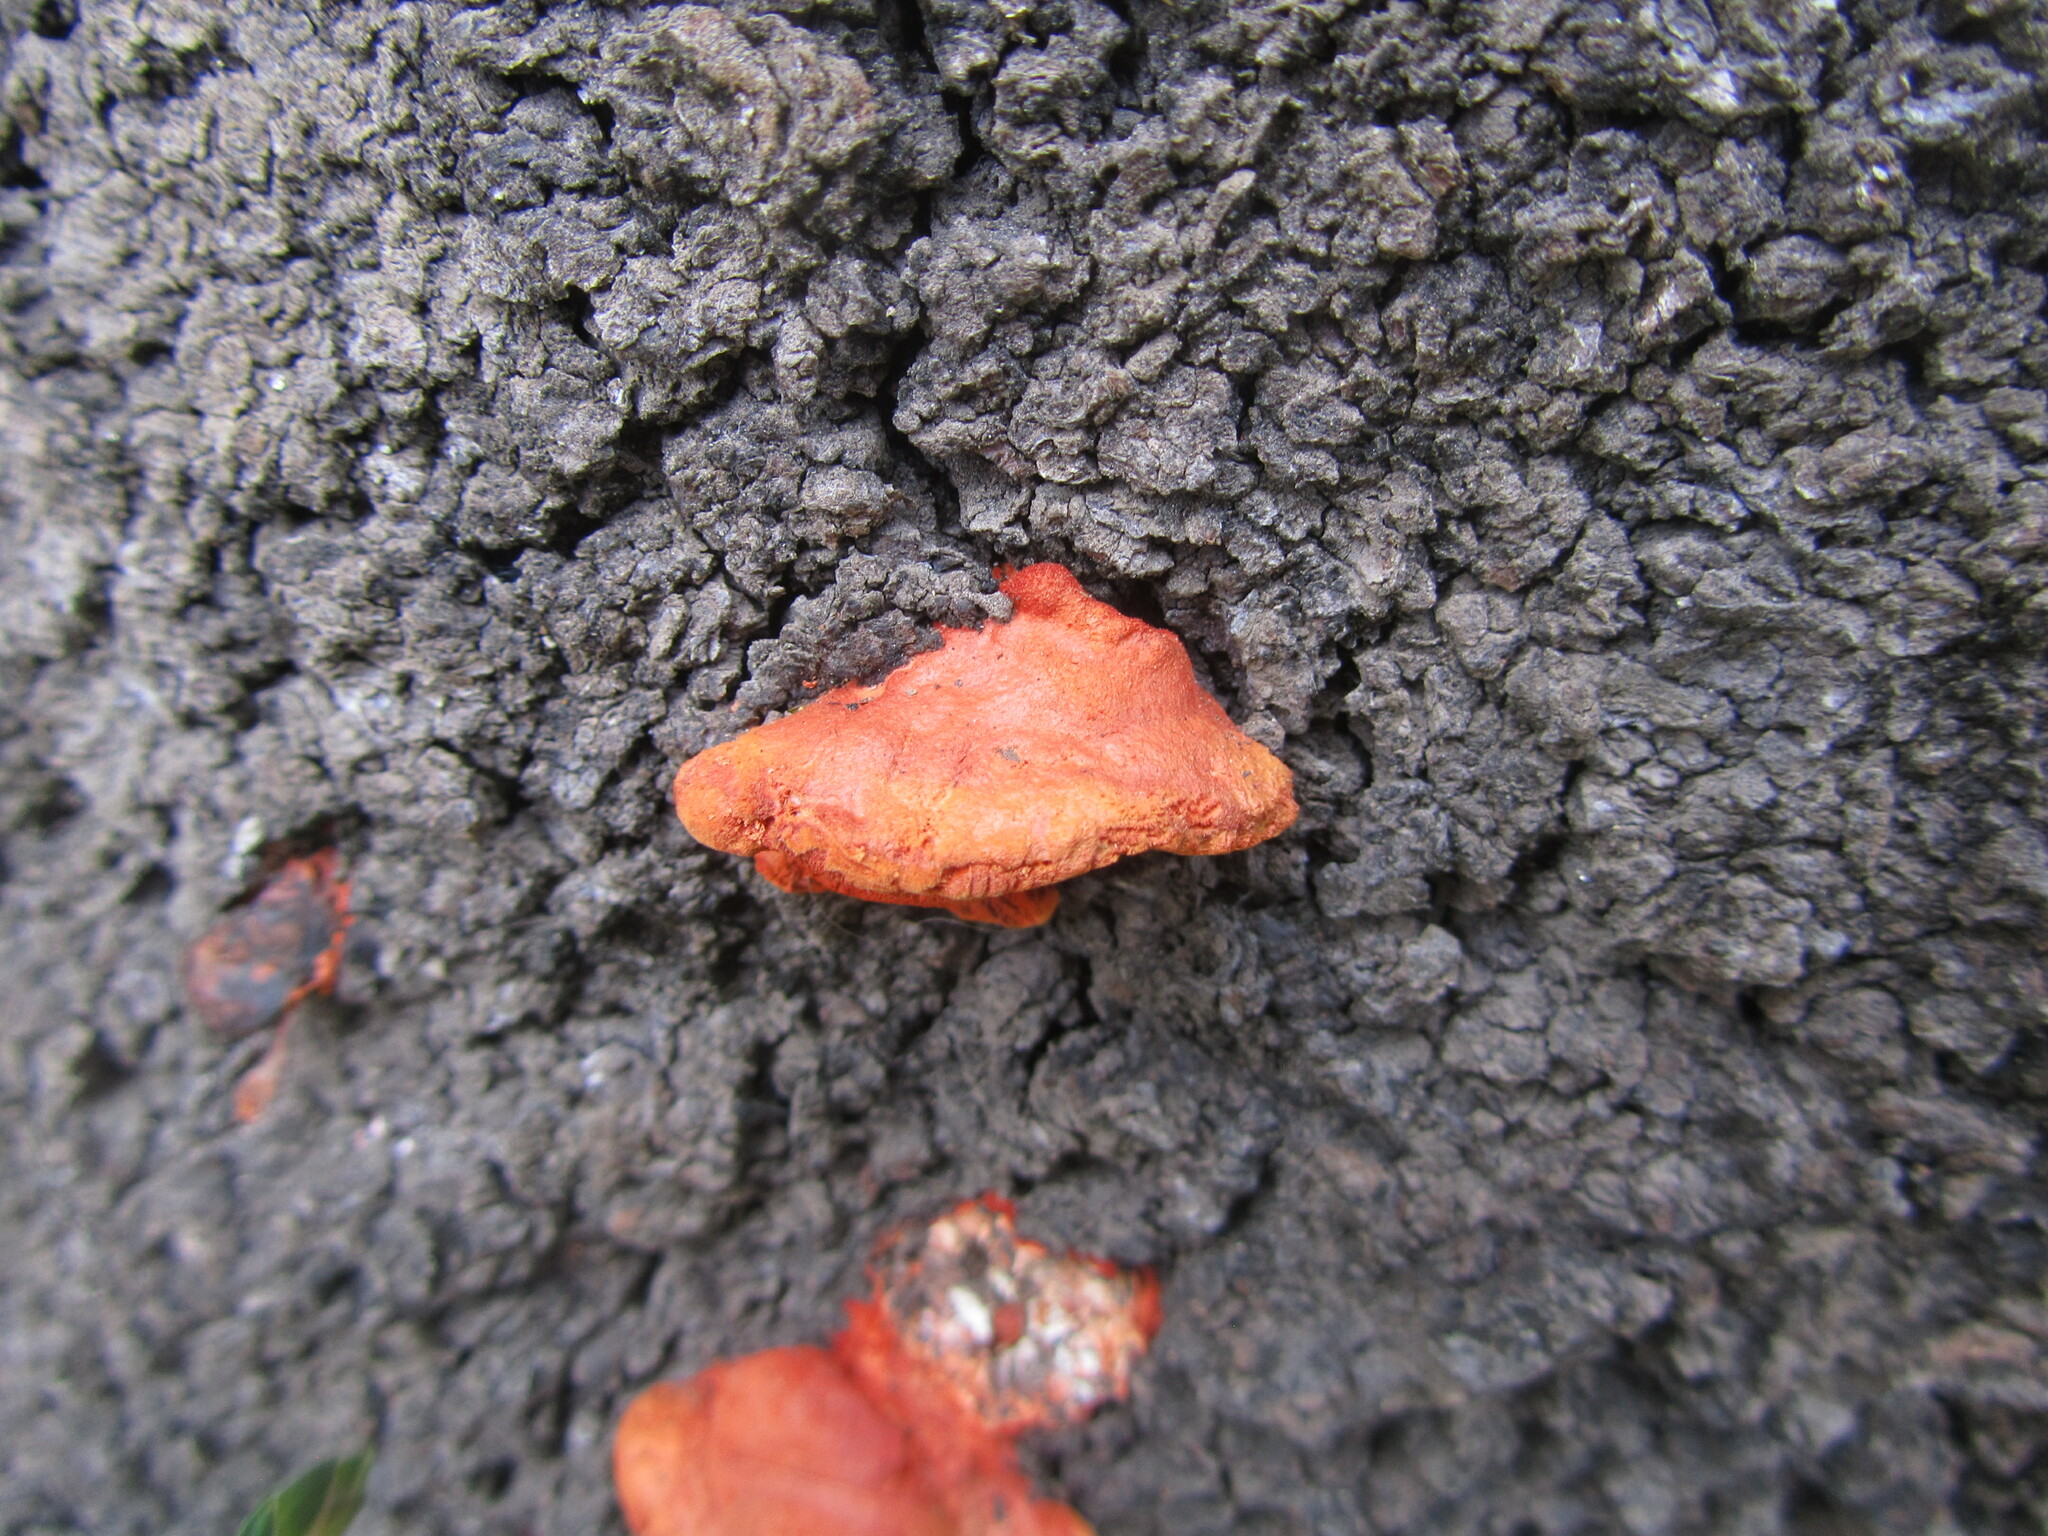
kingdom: Fungi
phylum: Basidiomycota
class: Agaricomycetes
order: Polyporales
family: Polyporaceae
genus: Trametes
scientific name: Trametes coccinea
